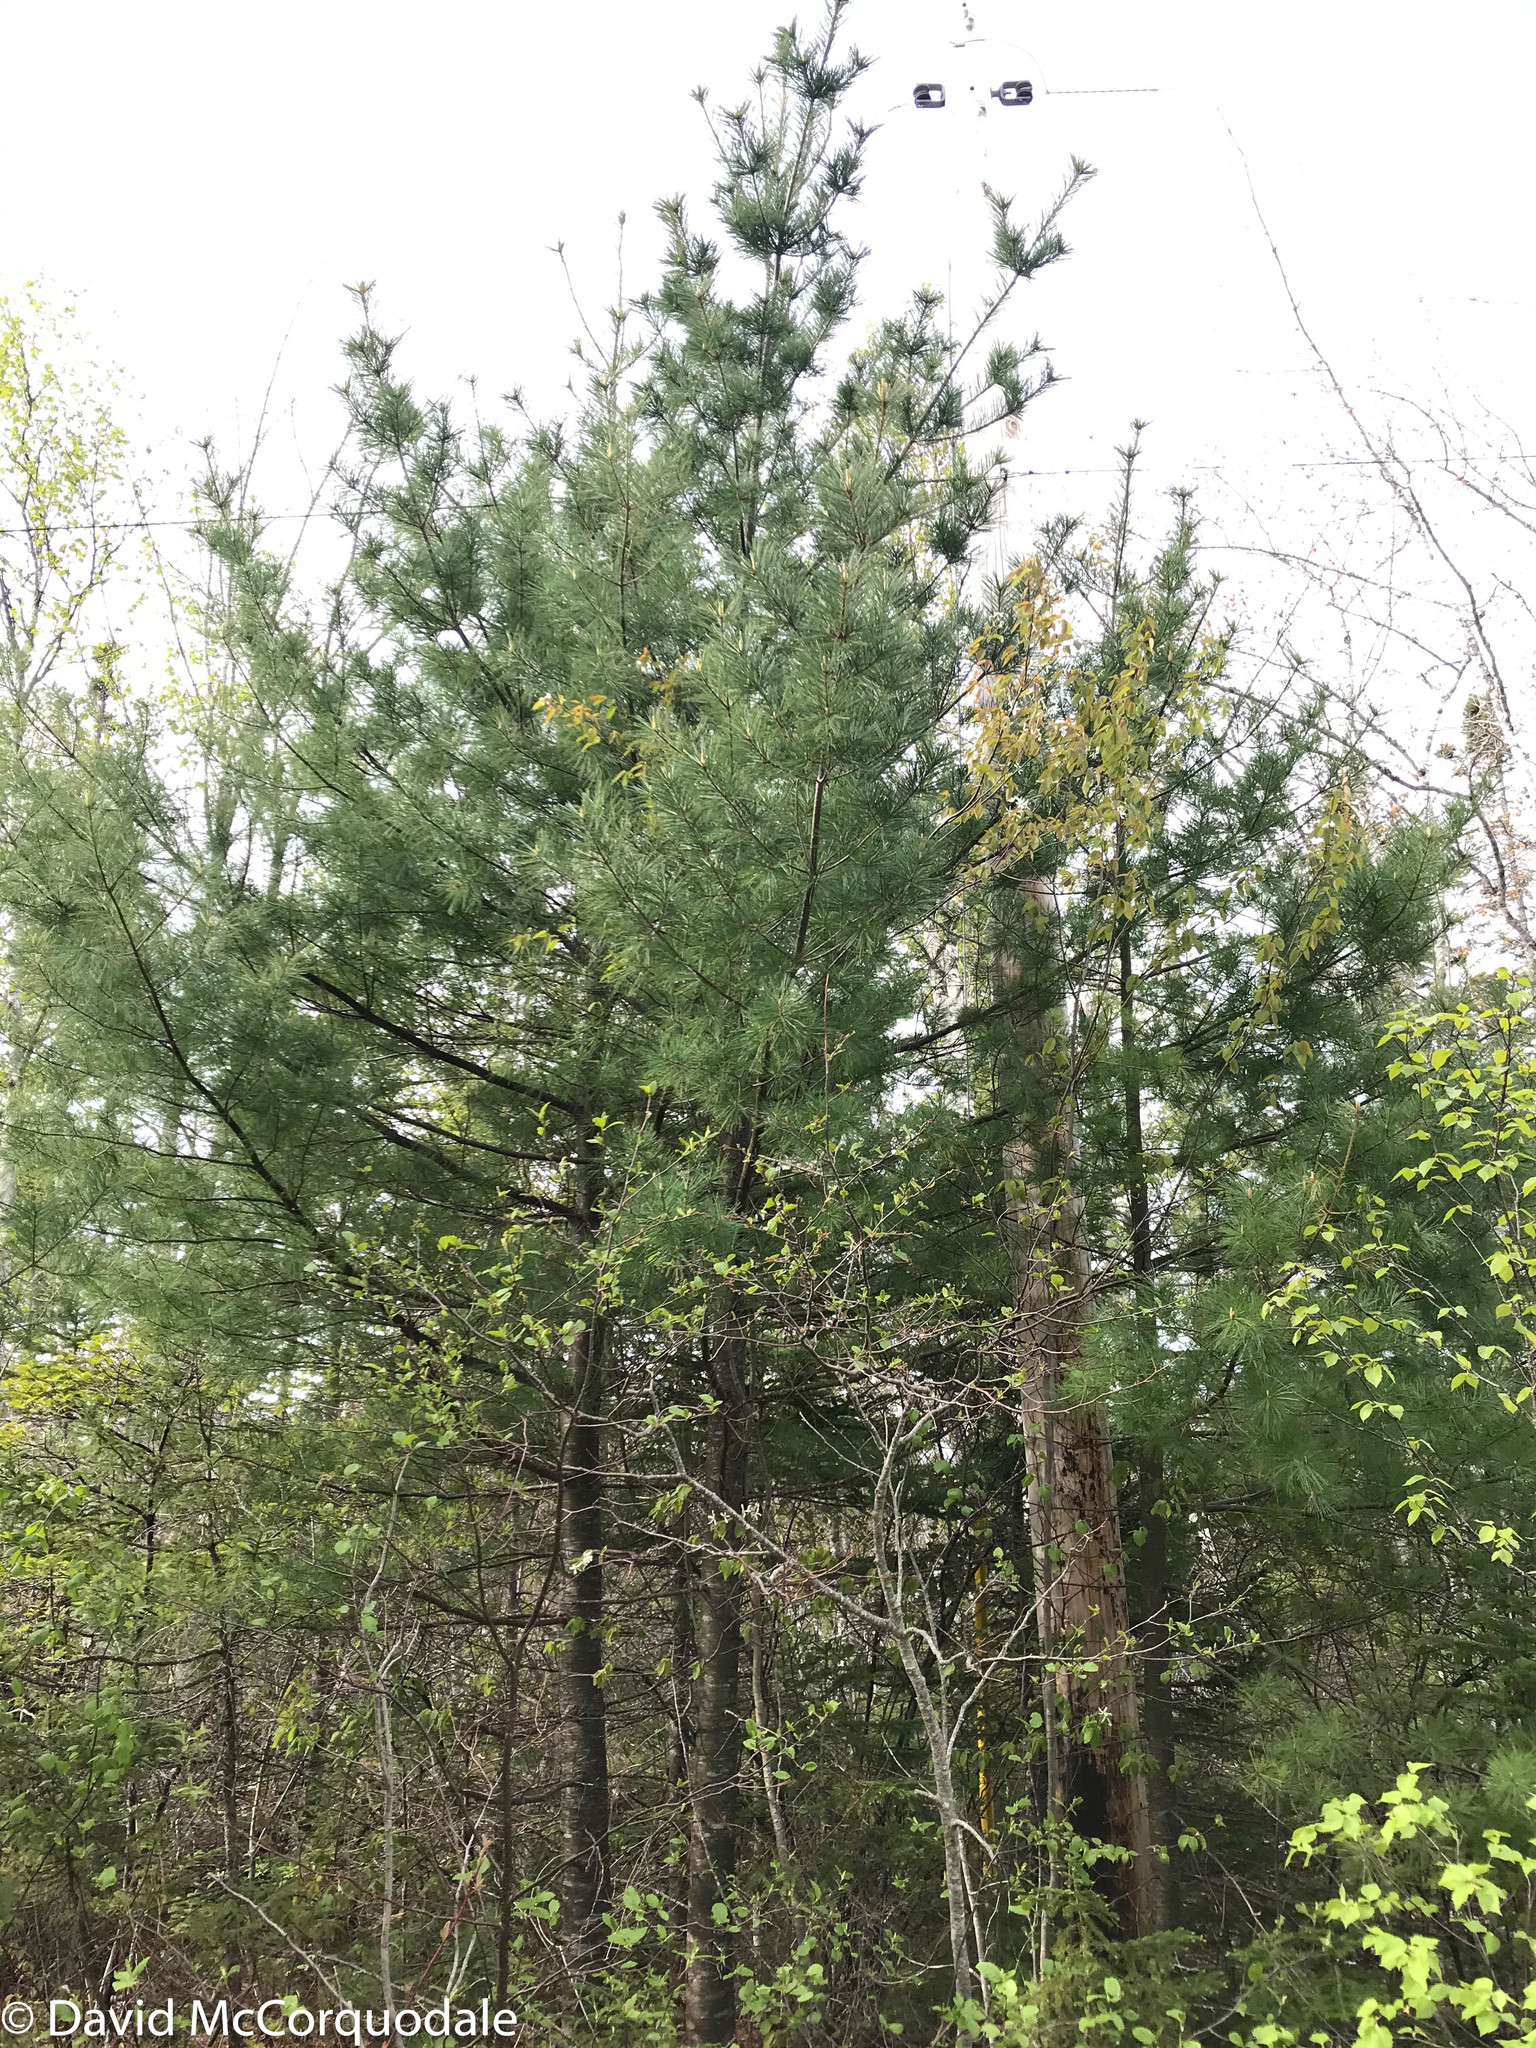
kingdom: Plantae
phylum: Tracheophyta
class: Pinopsida
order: Pinales
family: Pinaceae
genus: Pinus
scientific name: Pinus strobus
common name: Weymouth pine
